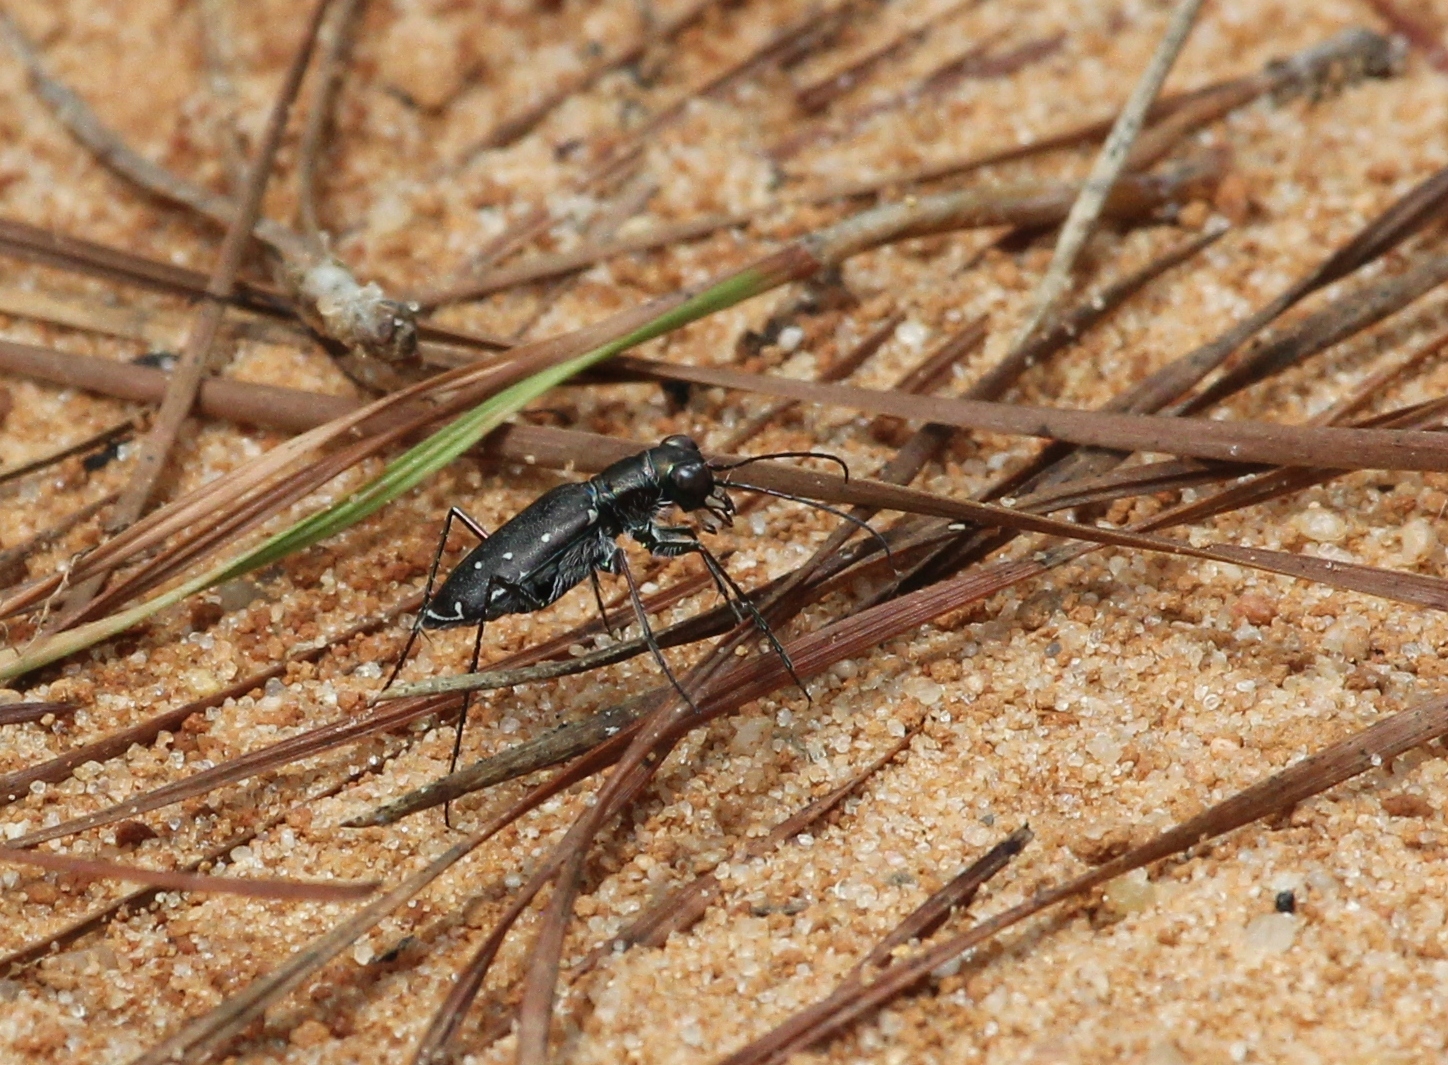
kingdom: Animalia
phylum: Arthropoda
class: Insecta
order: Coleoptera
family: Carabidae
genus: Cicindela
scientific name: Cicindela punctulata
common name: Punctured tiger beetle
